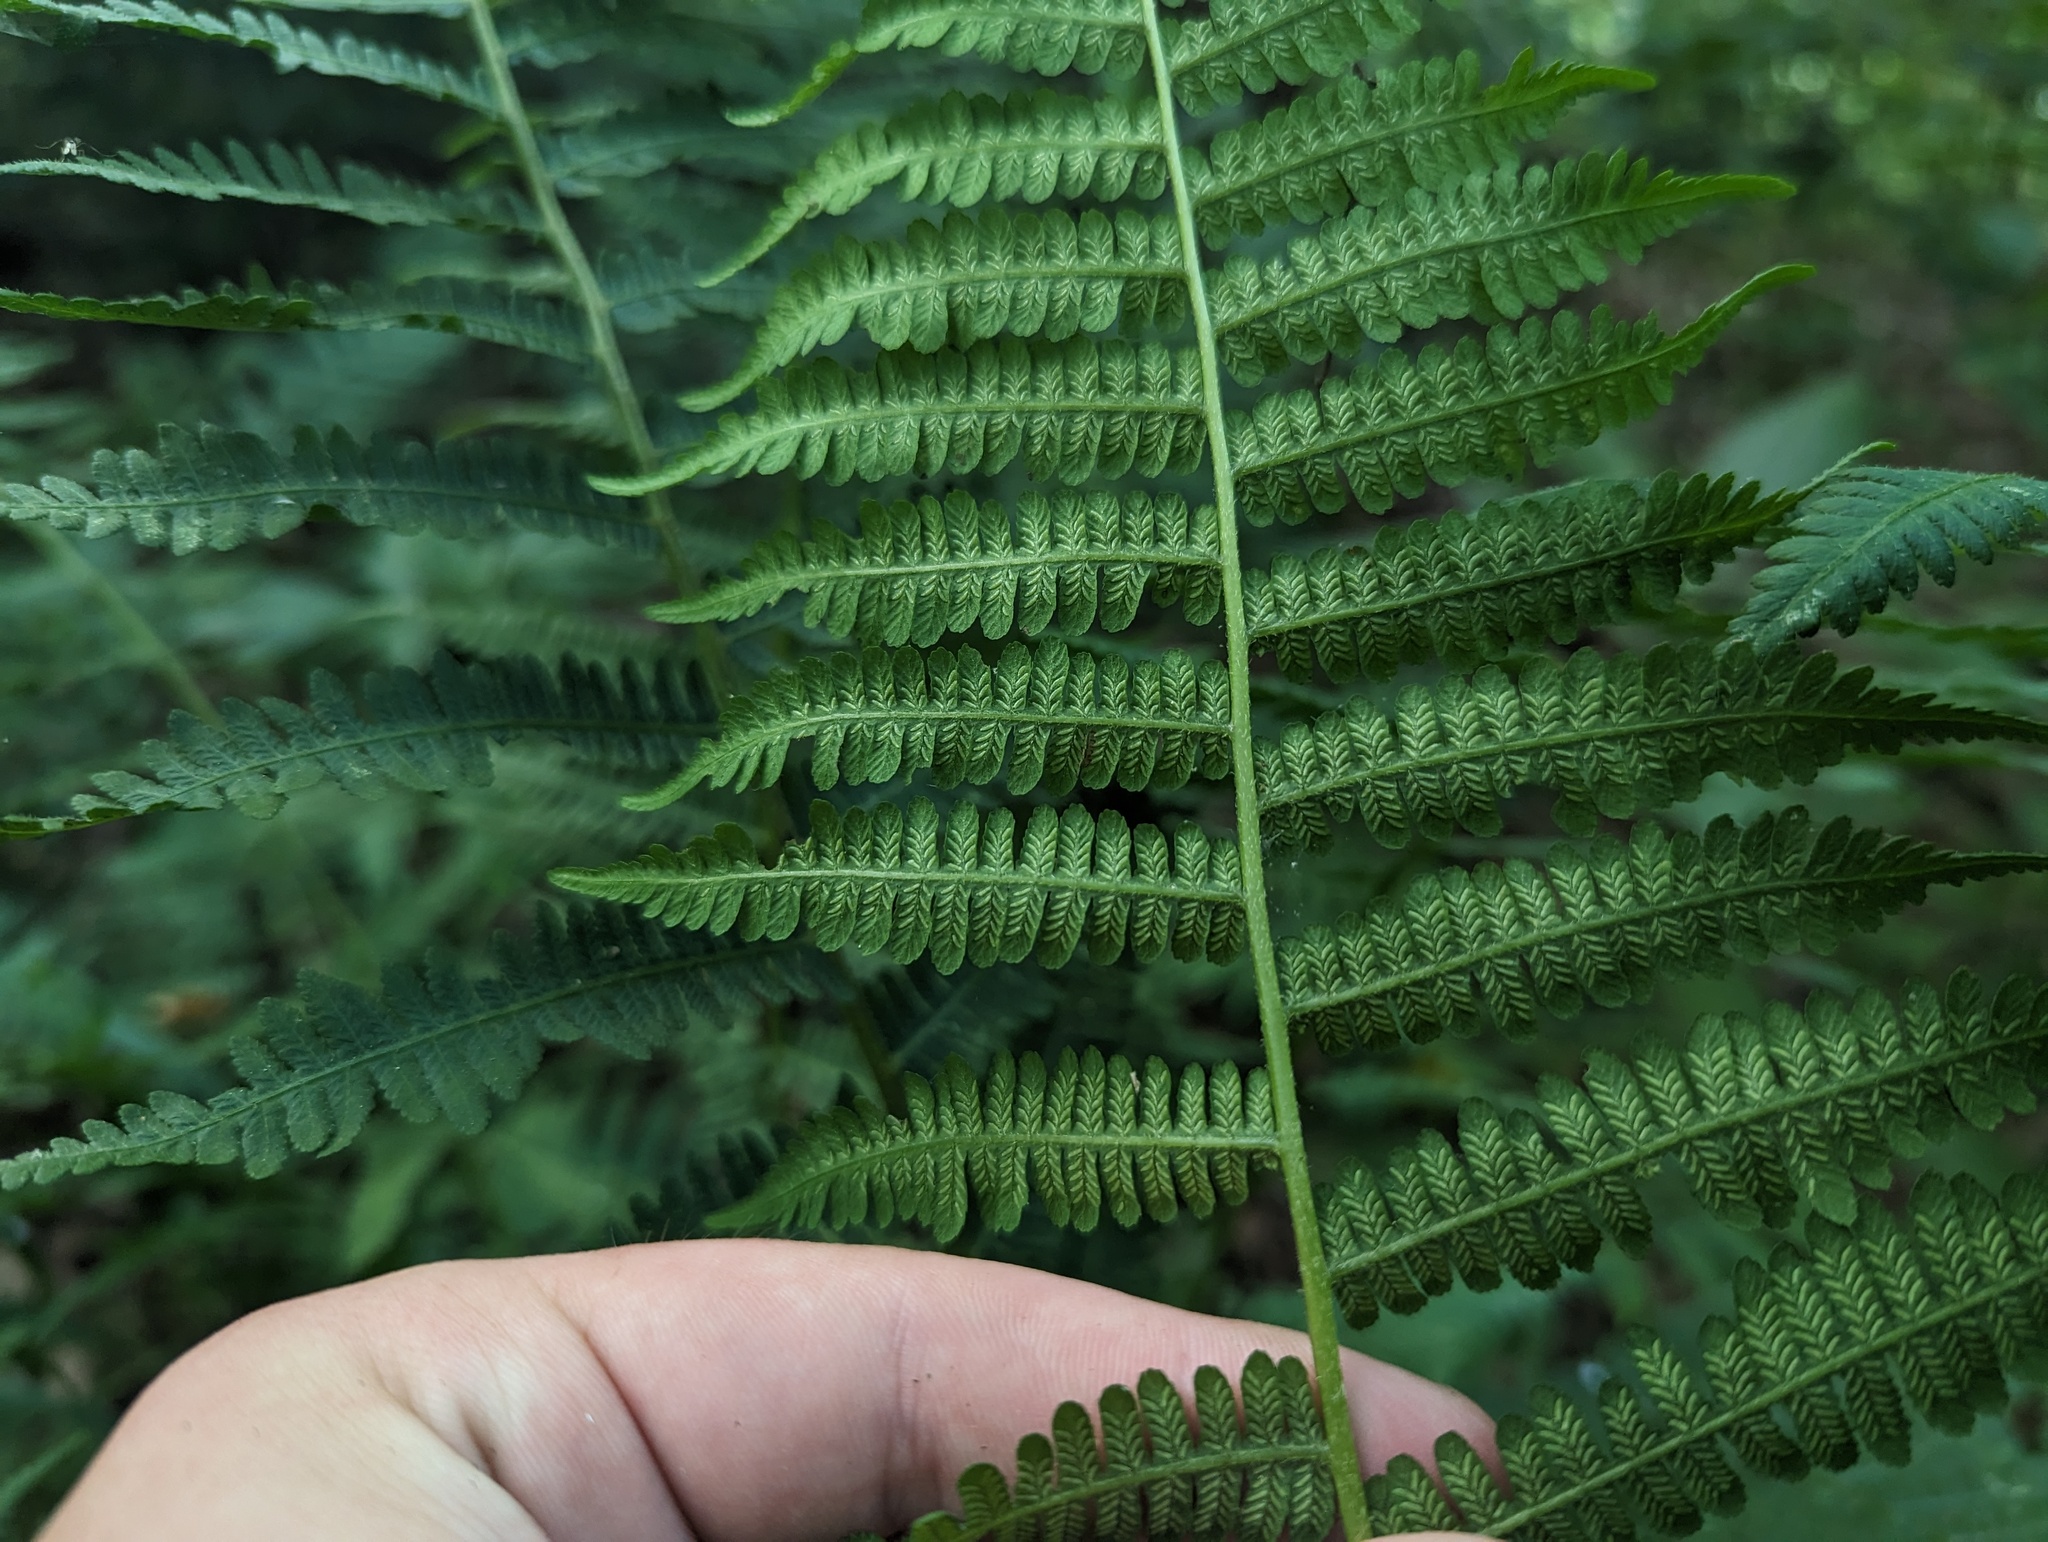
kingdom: Plantae
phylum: Tracheophyta
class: Polypodiopsida
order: Polypodiales
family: Athyriaceae
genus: Deparia
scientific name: Deparia acrostichoides
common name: Silver false spleenwort
